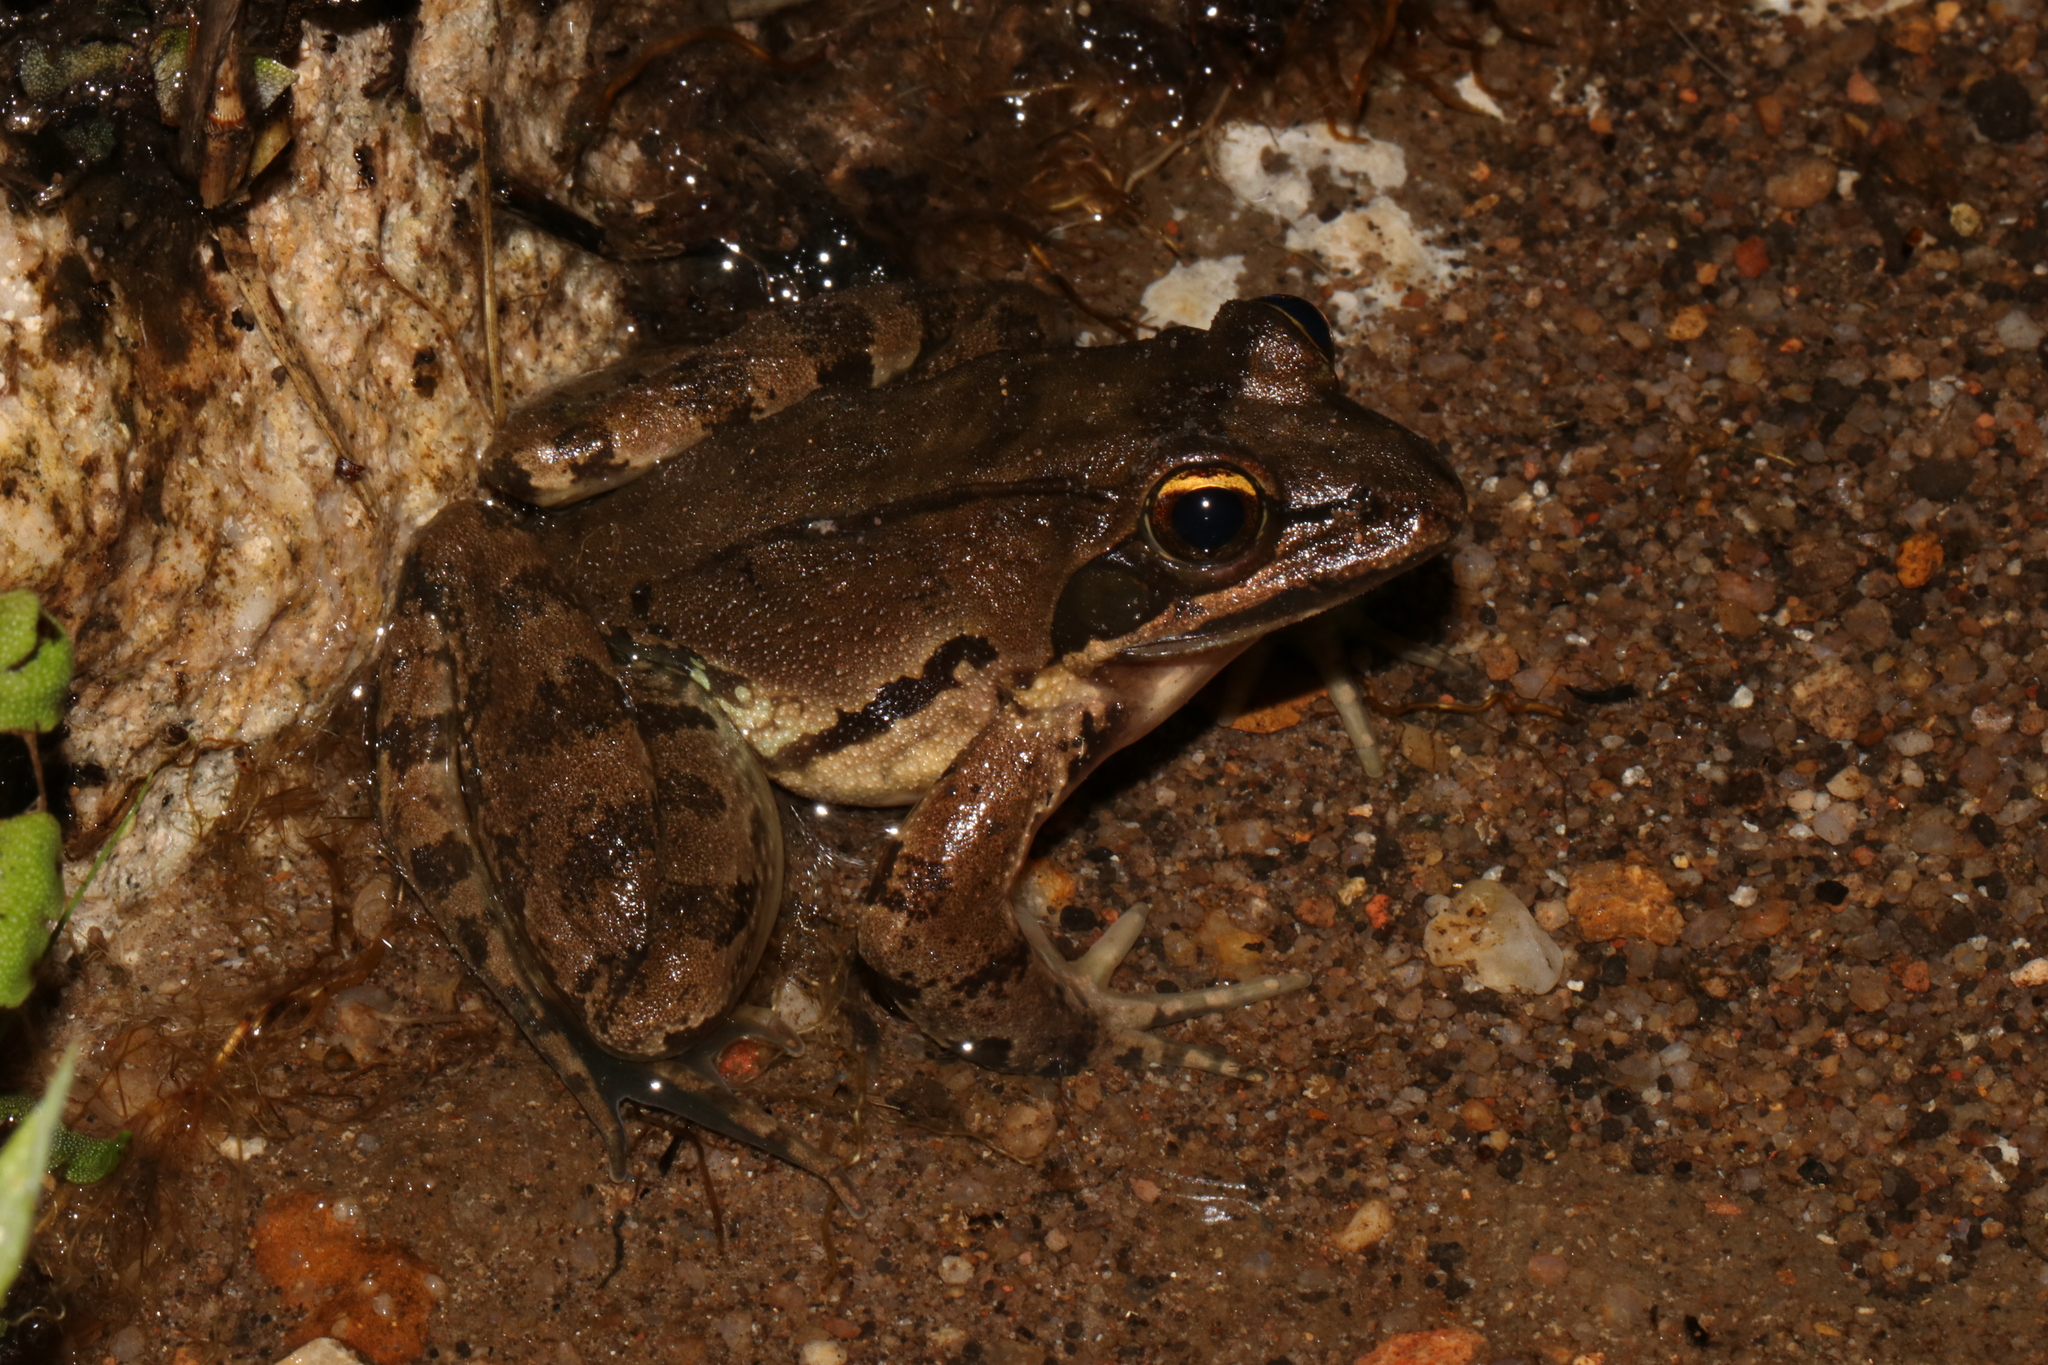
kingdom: Animalia
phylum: Chordata
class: Amphibia
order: Anura
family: Pyxicephalidae
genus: Amietia
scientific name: Amietia tenuoplicata
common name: River frog
